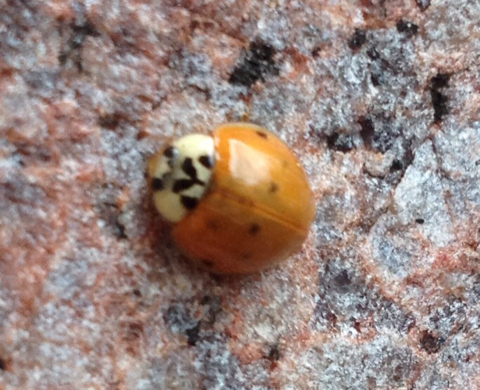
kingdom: Animalia
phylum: Arthropoda
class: Insecta
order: Coleoptera
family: Coccinellidae
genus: Harmonia
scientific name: Harmonia axyridis
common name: Harlequin ladybird
